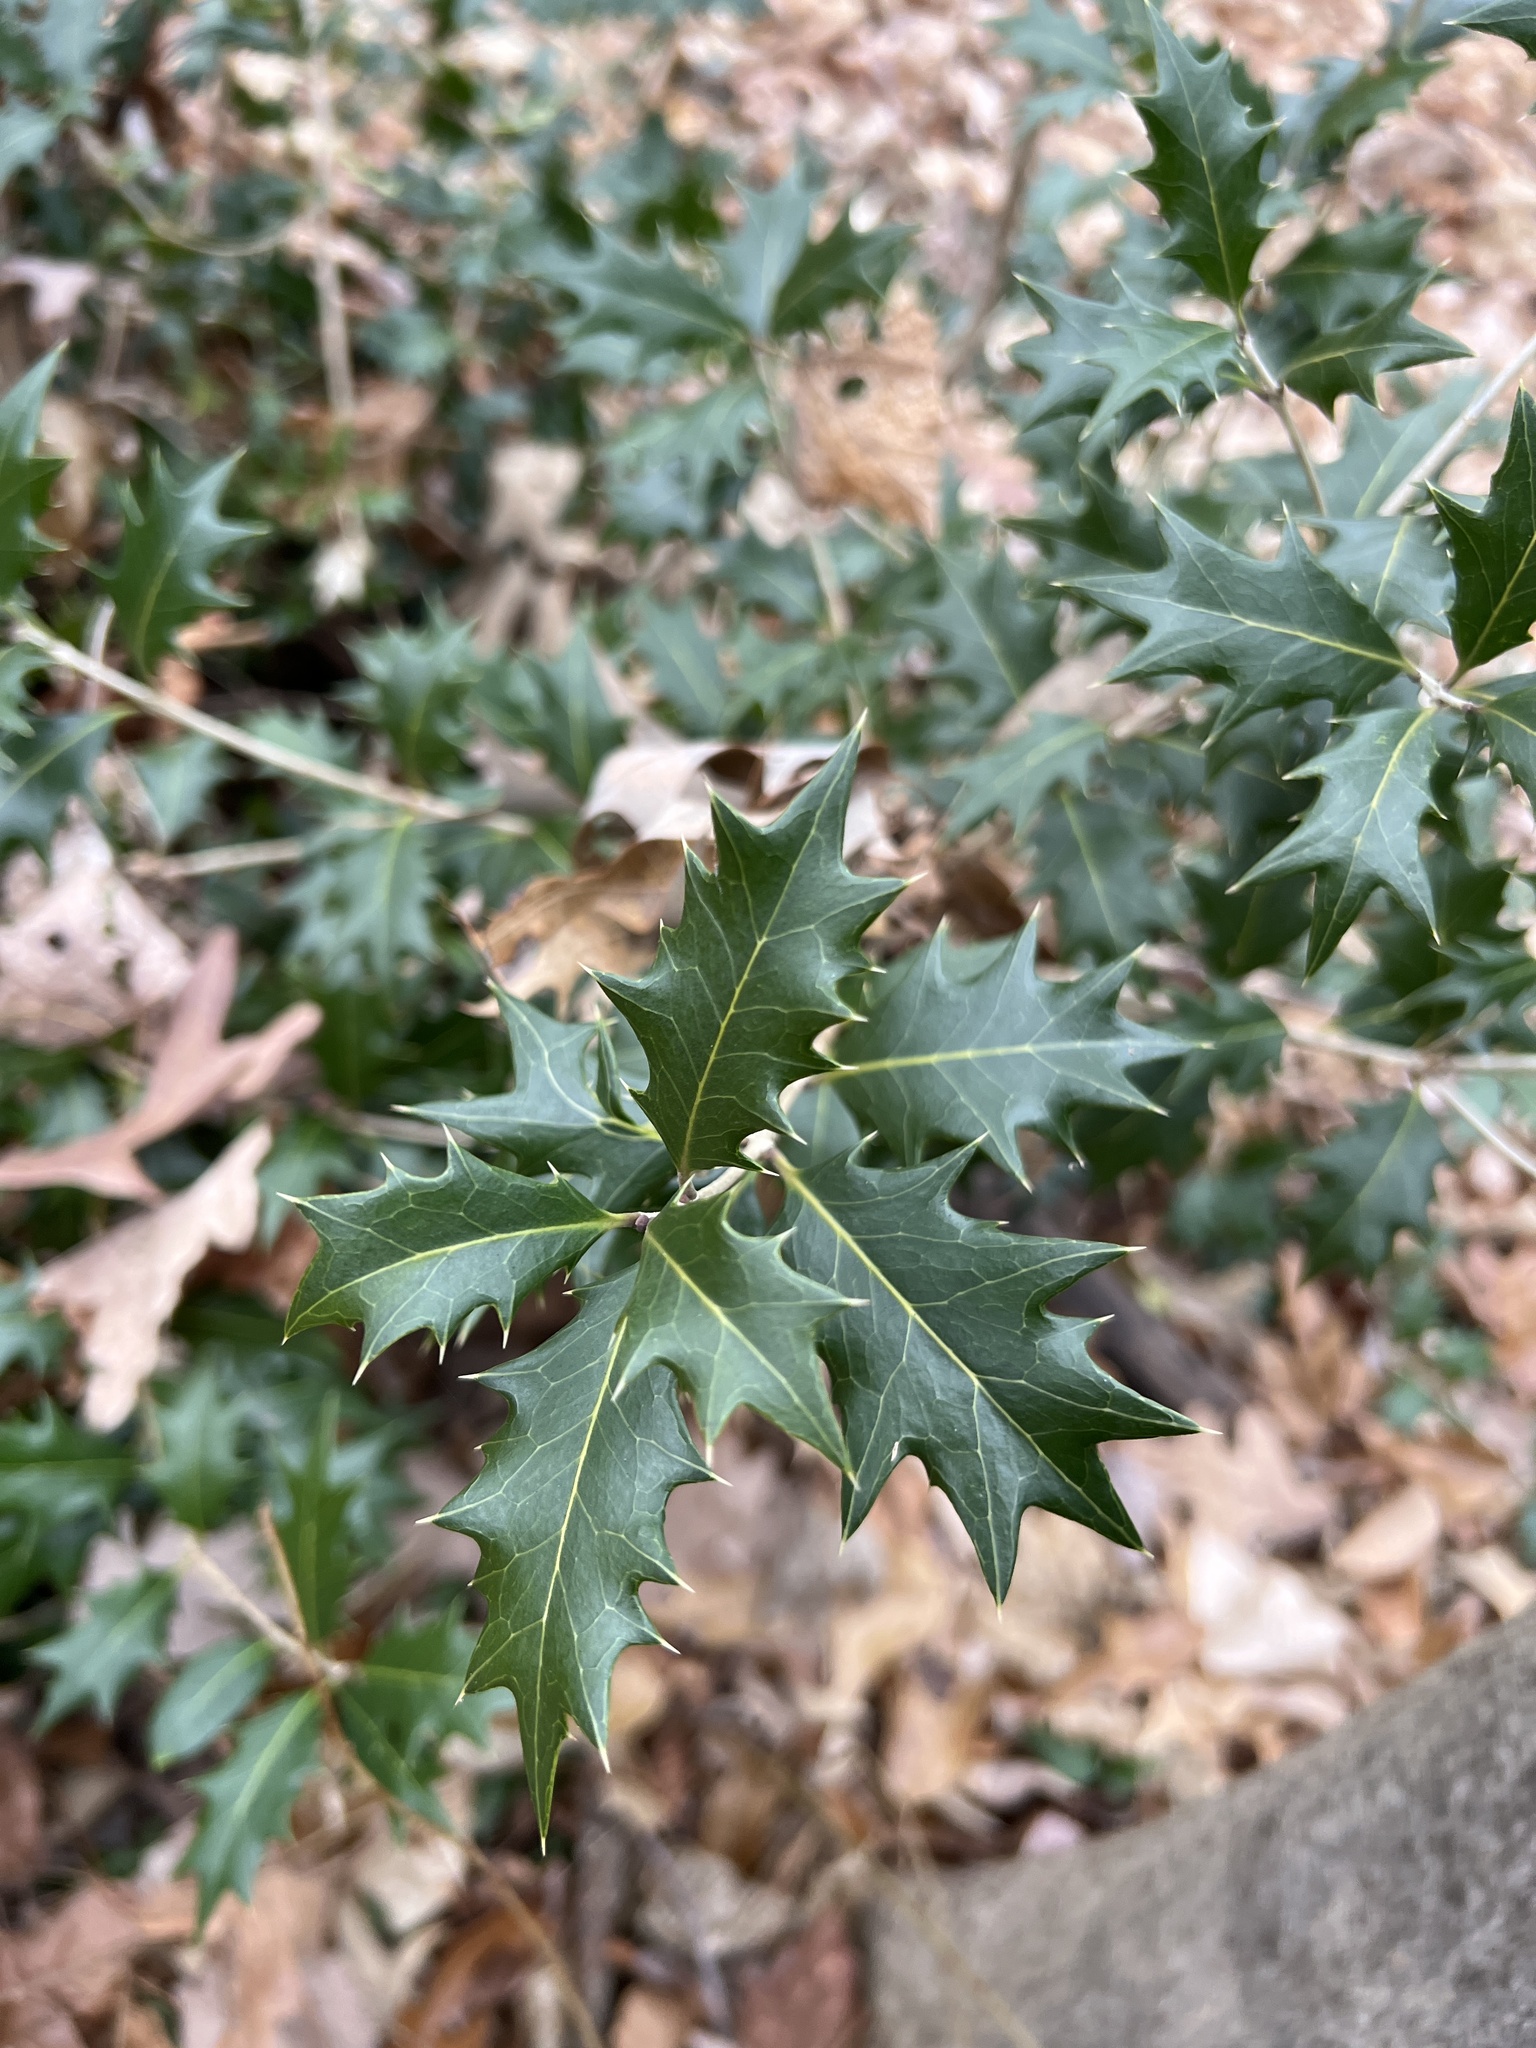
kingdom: Plantae
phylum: Tracheophyta
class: Magnoliopsida
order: Lamiales
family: Oleaceae
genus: Osmanthus
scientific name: Osmanthus heterophyllus
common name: Holly osmanthus
